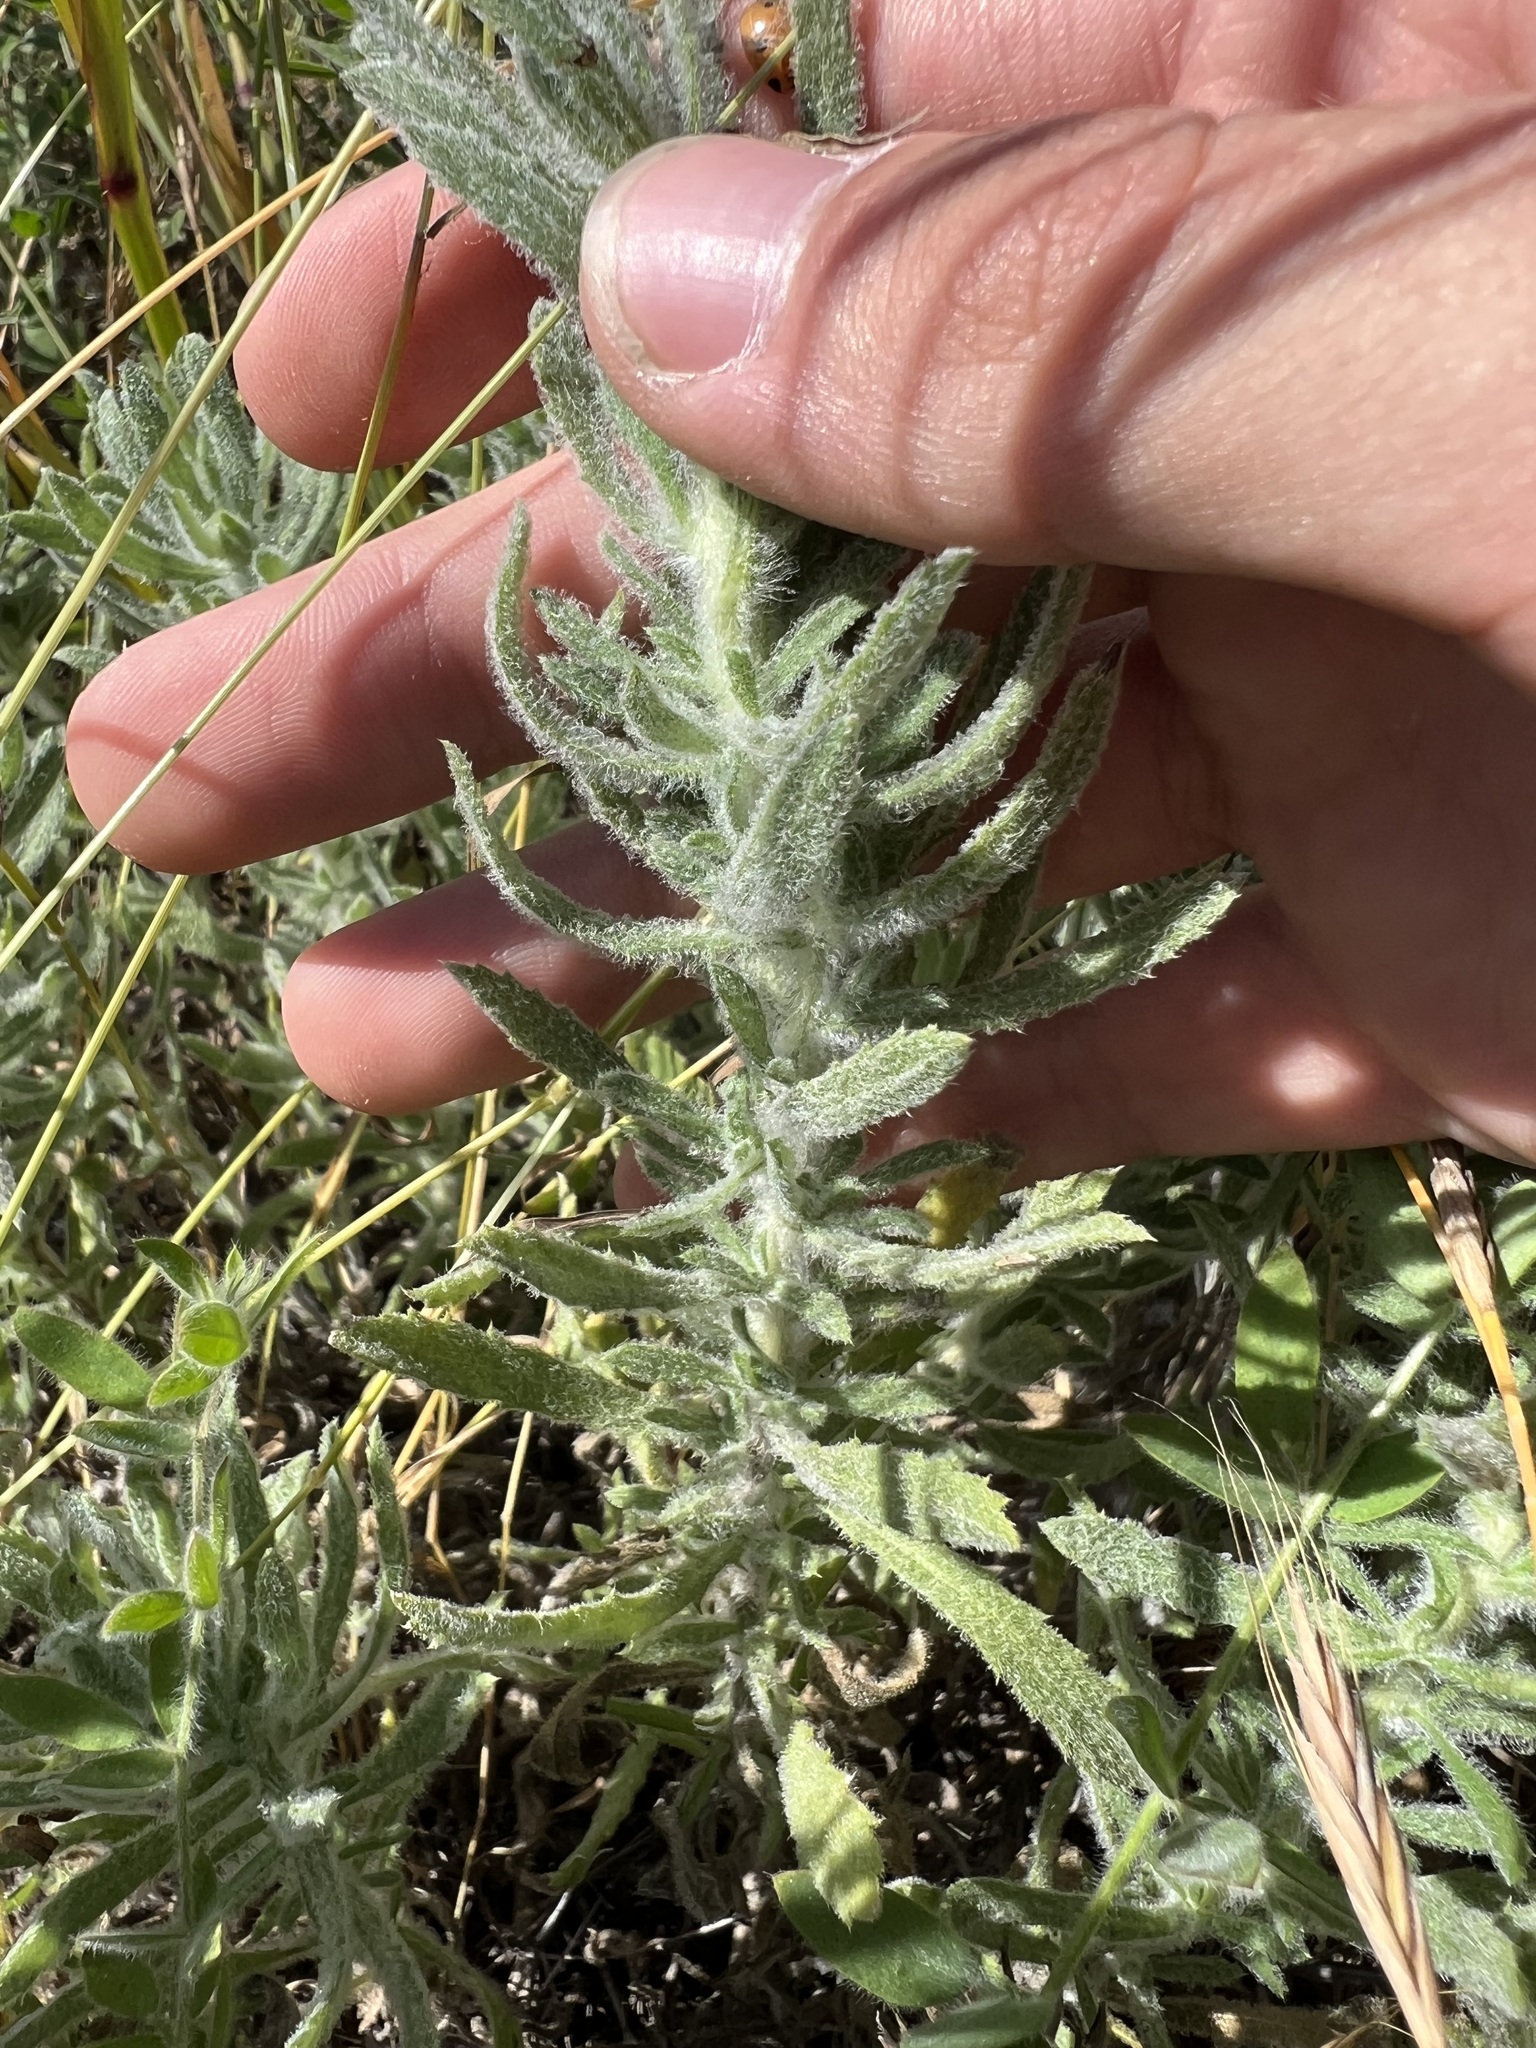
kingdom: Plantae
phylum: Tracheophyta
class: Magnoliopsida
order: Asterales
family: Asteraceae
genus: Isocoma
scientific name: Isocoma menziesii
